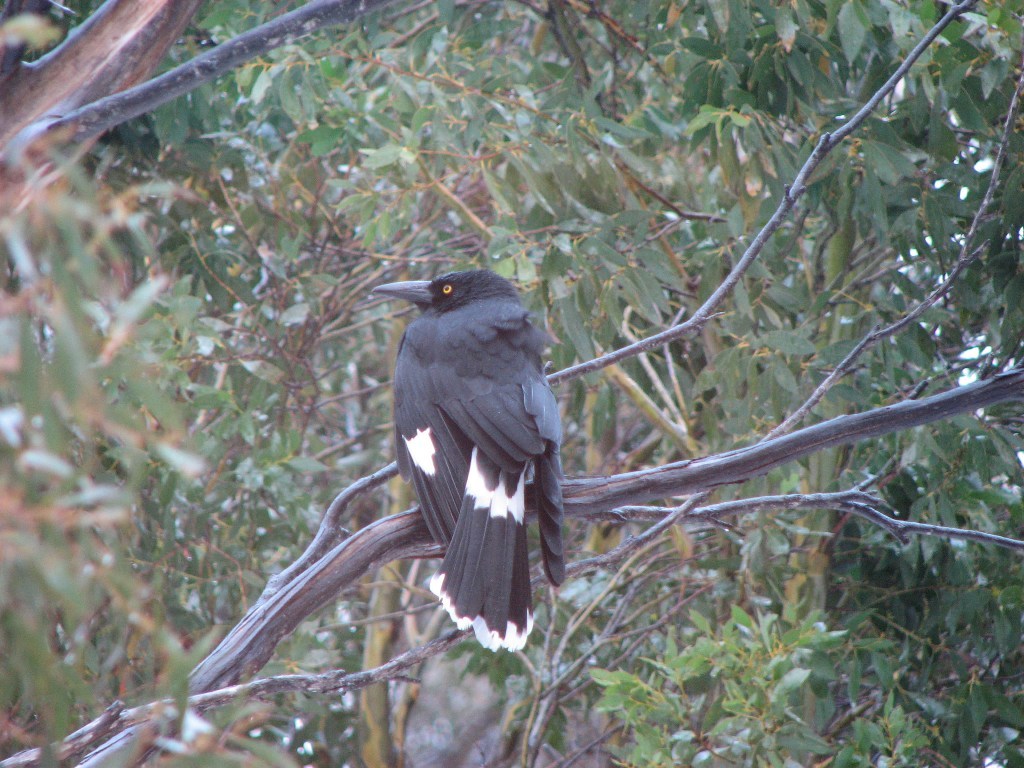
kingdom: Animalia
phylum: Chordata
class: Aves
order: Passeriformes
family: Cracticidae
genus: Strepera
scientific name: Strepera graculina
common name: Pied currawong
